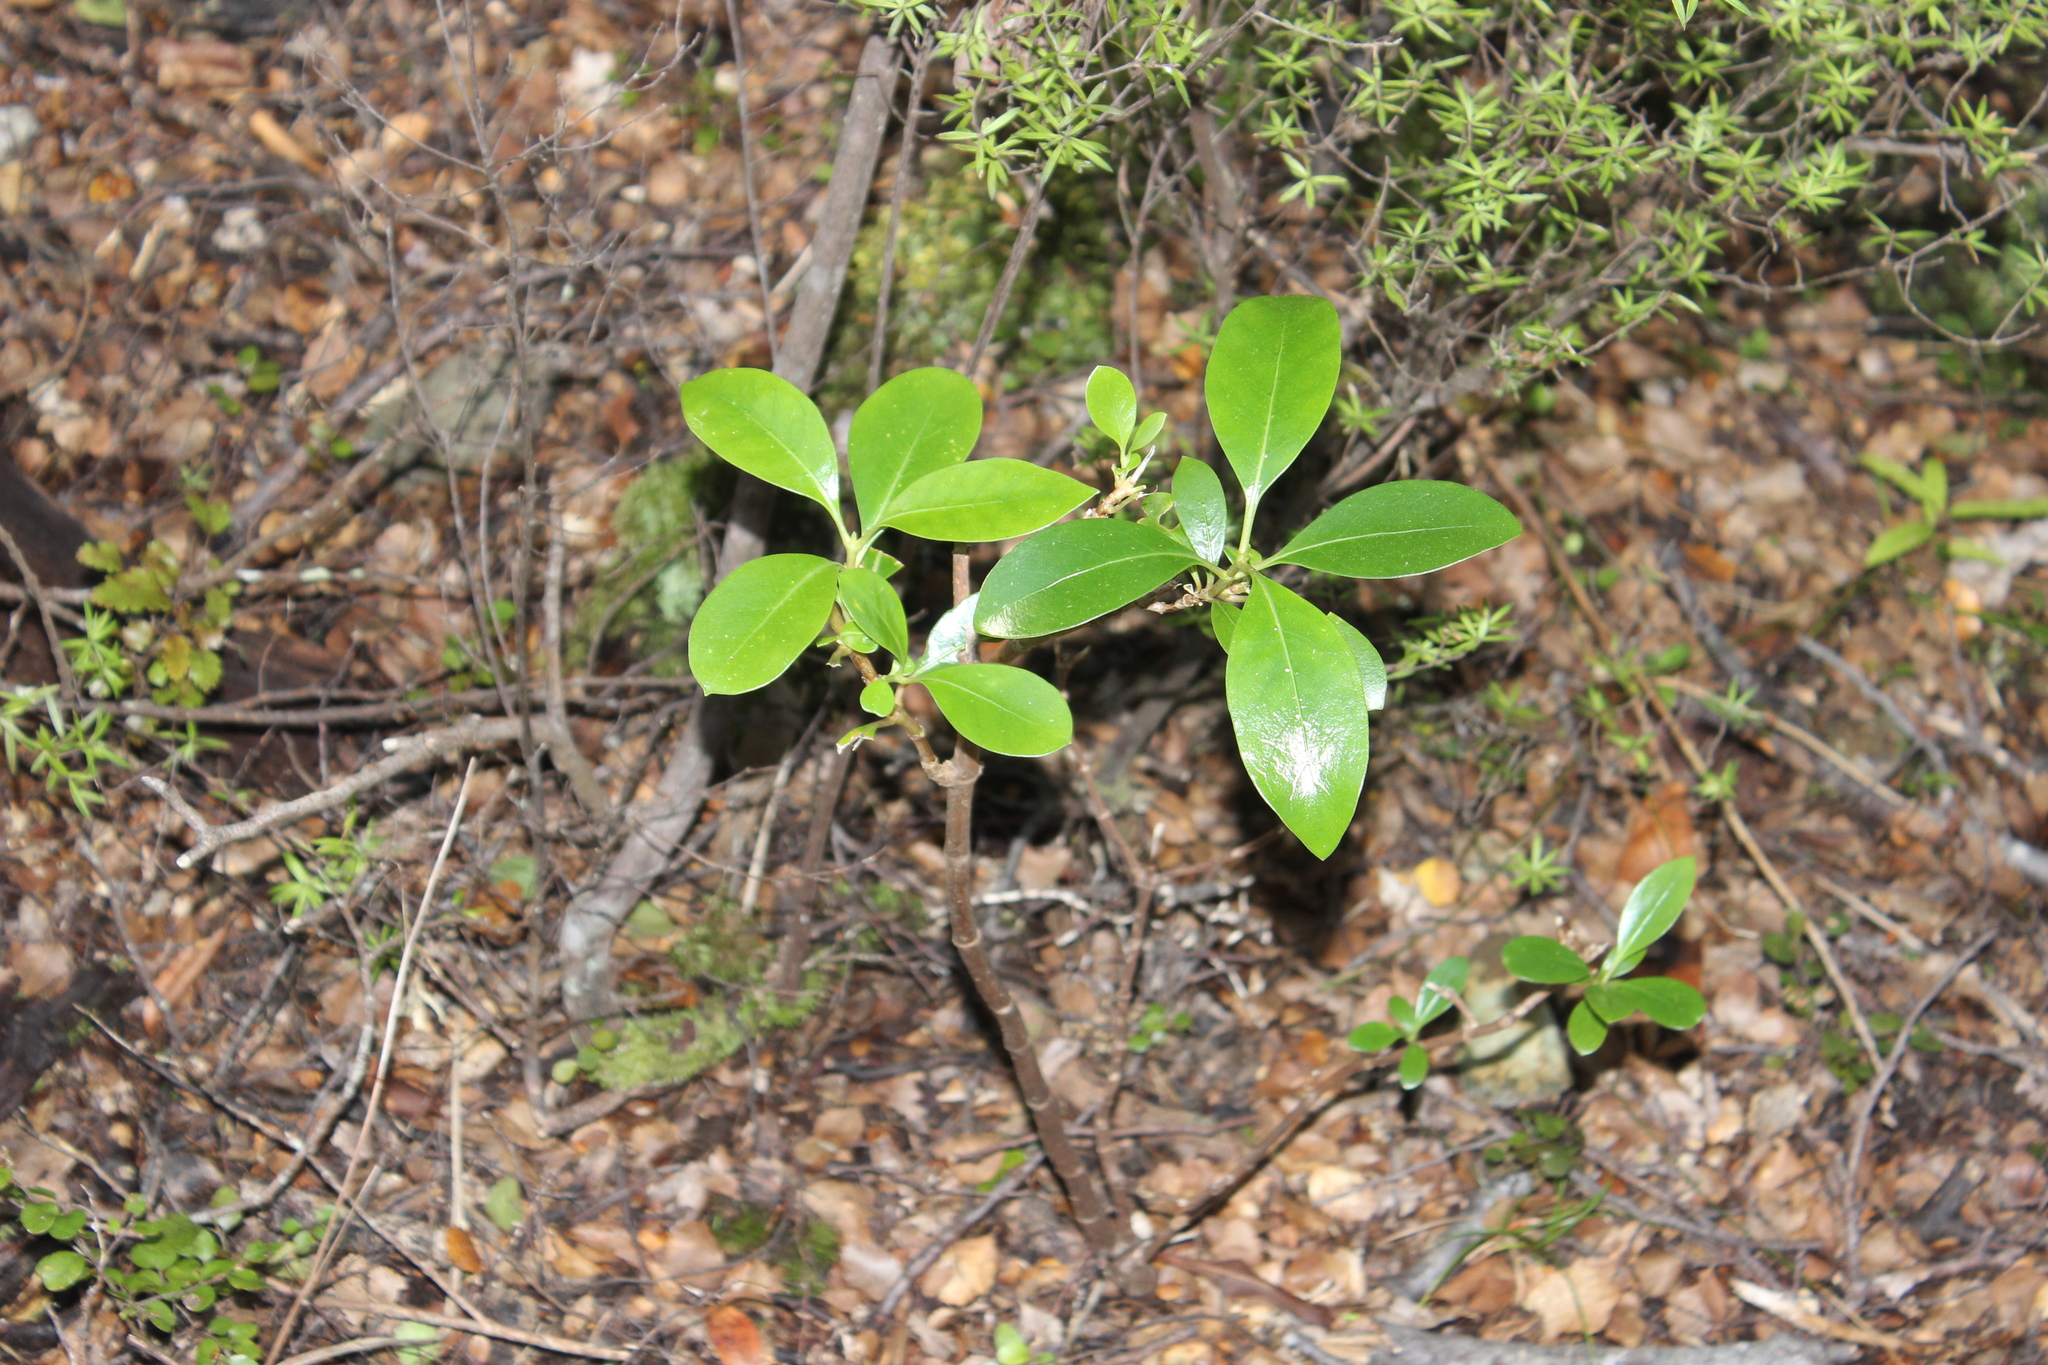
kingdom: Plantae
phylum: Tracheophyta
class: Magnoliopsida
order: Gentianales
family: Rubiaceae
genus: Coprosma
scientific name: Coprosma lucida
